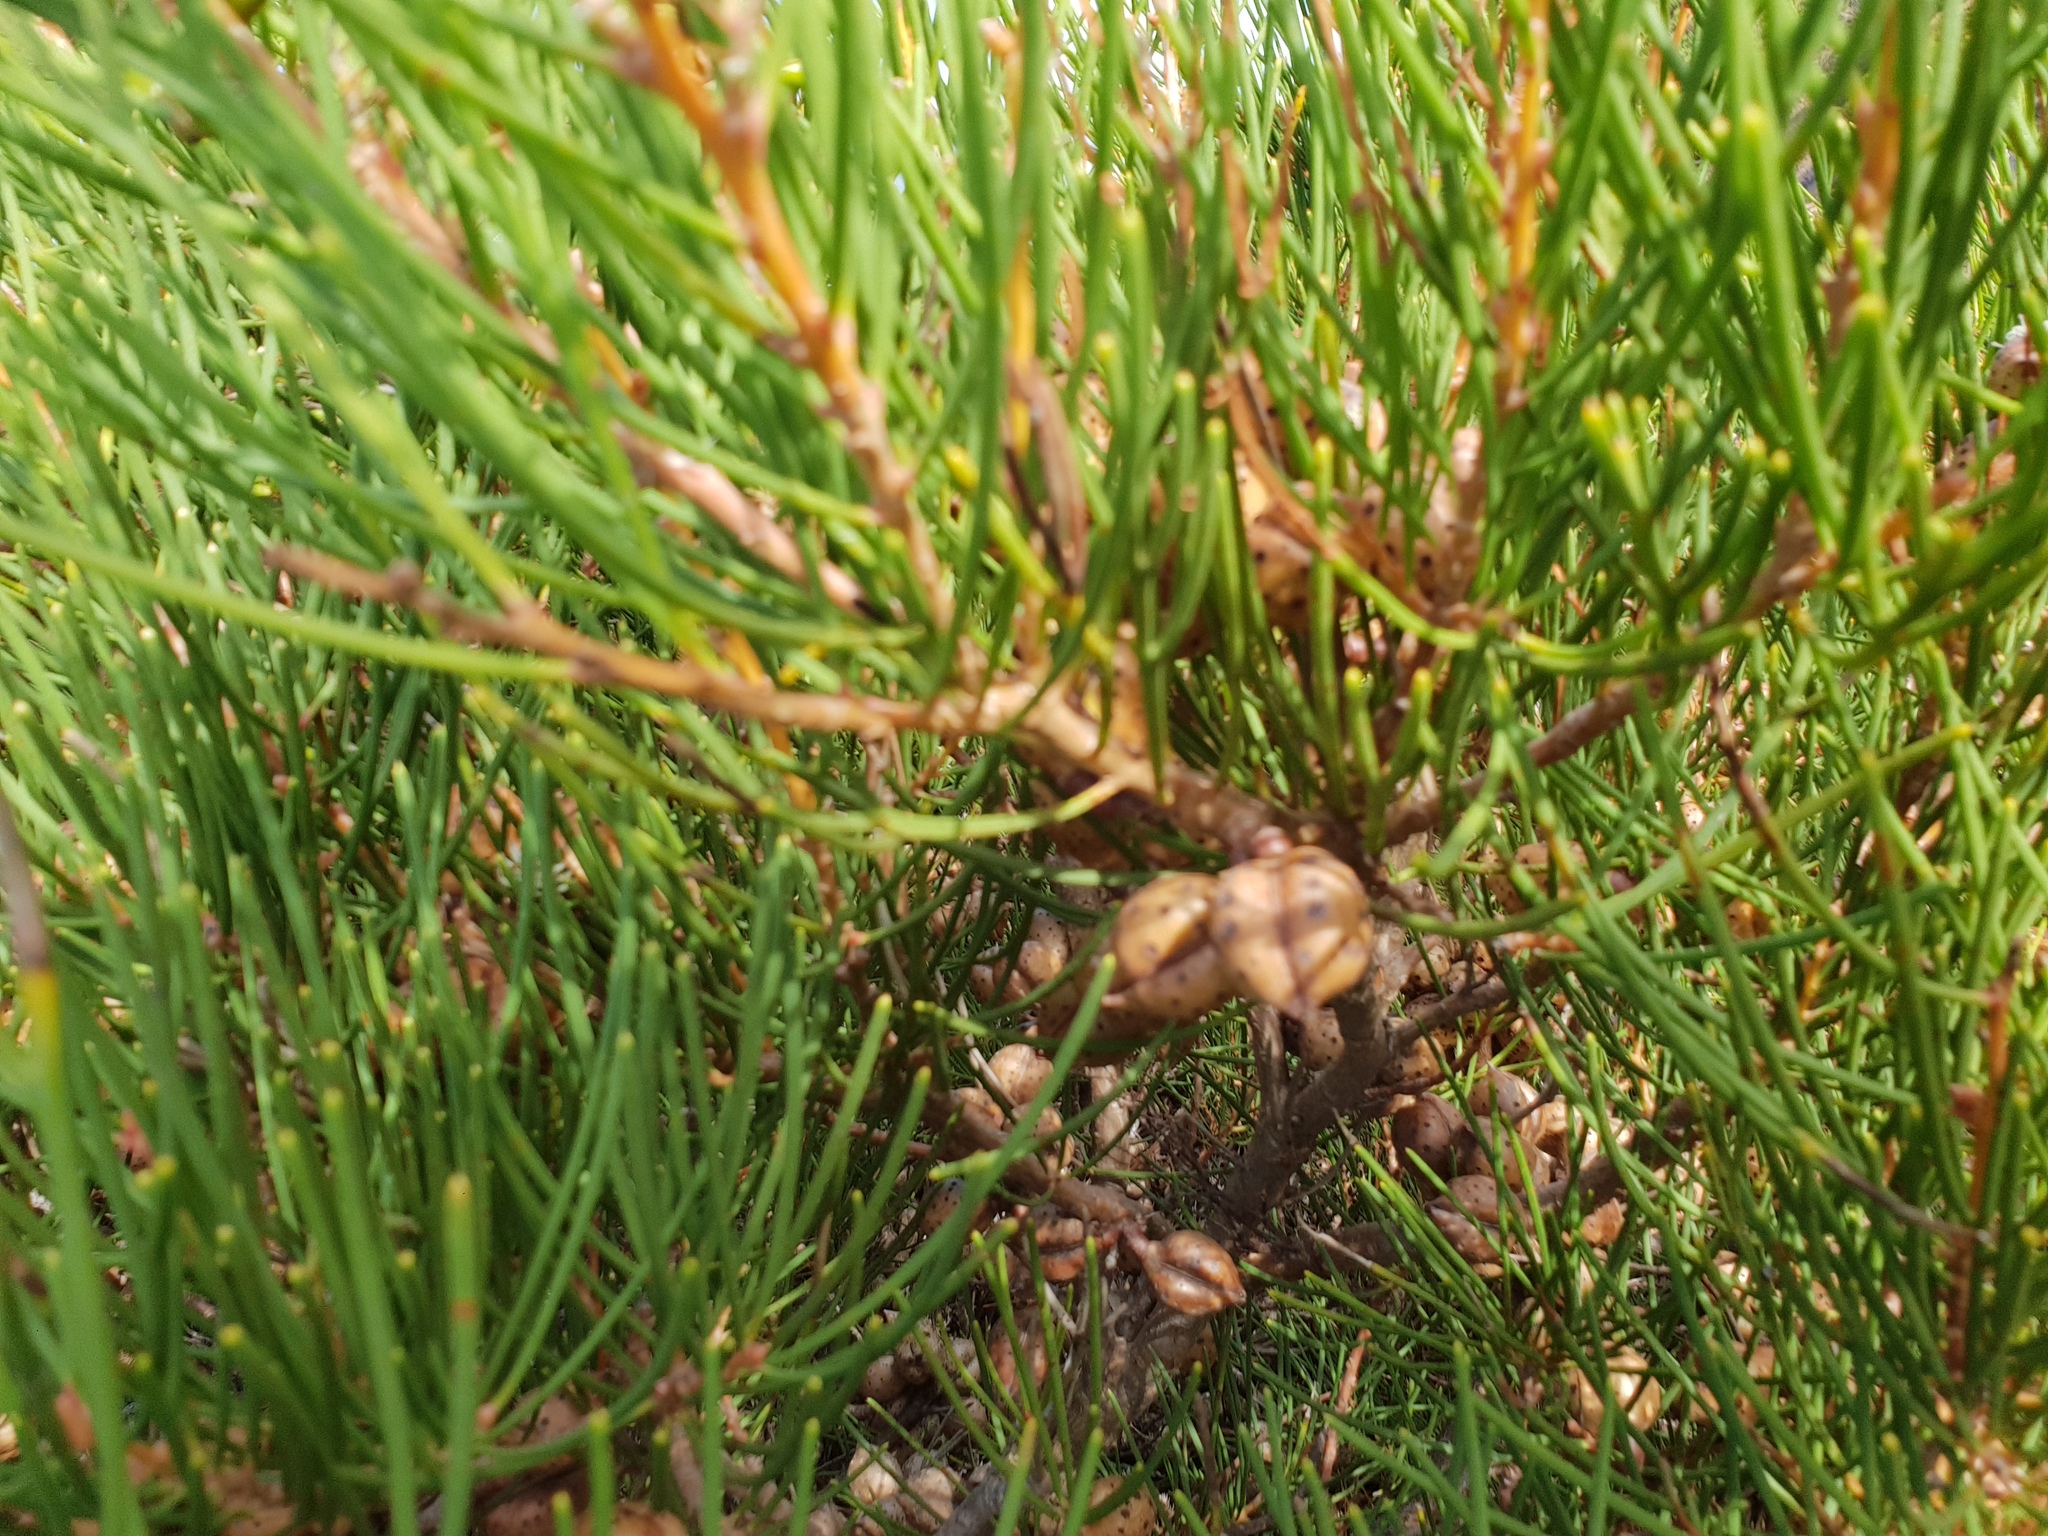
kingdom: Plantae
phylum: Tracheophyta
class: Magnoliopsida
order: Proteales
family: Proteaceae
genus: Hakea
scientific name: Hakea drupacea
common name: Sweet hakea
